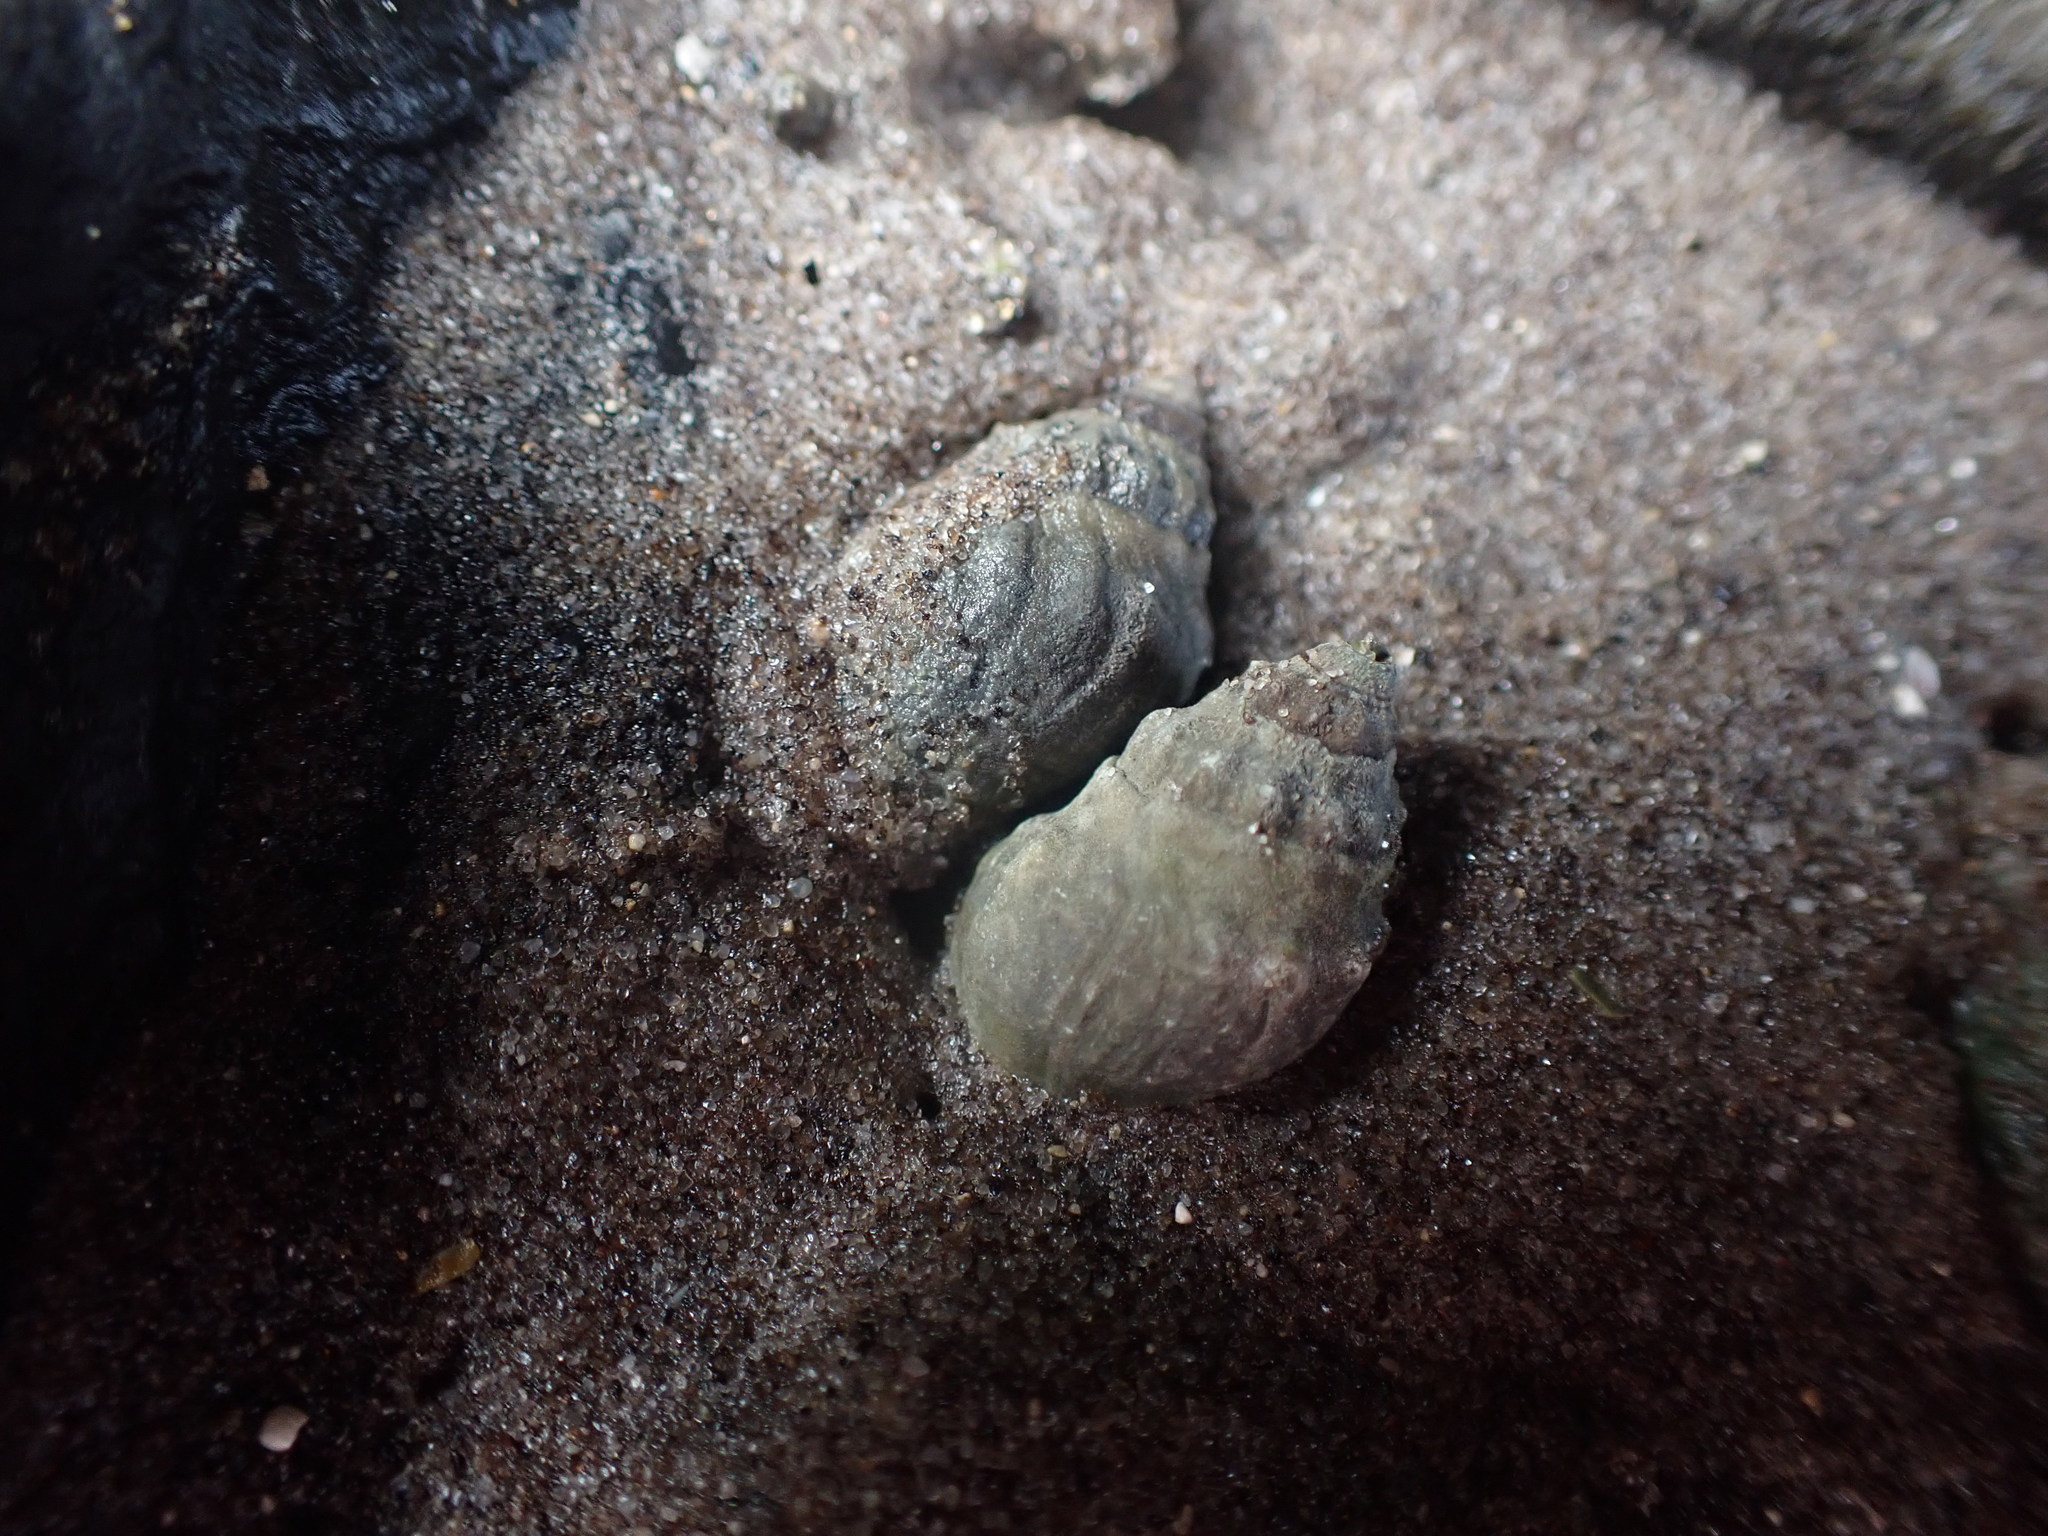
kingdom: Animalia
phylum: Mollusca
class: Gastropoda
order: Neogastropoda
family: Cominellidae
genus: Cominella
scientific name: Cominella glandiformis
